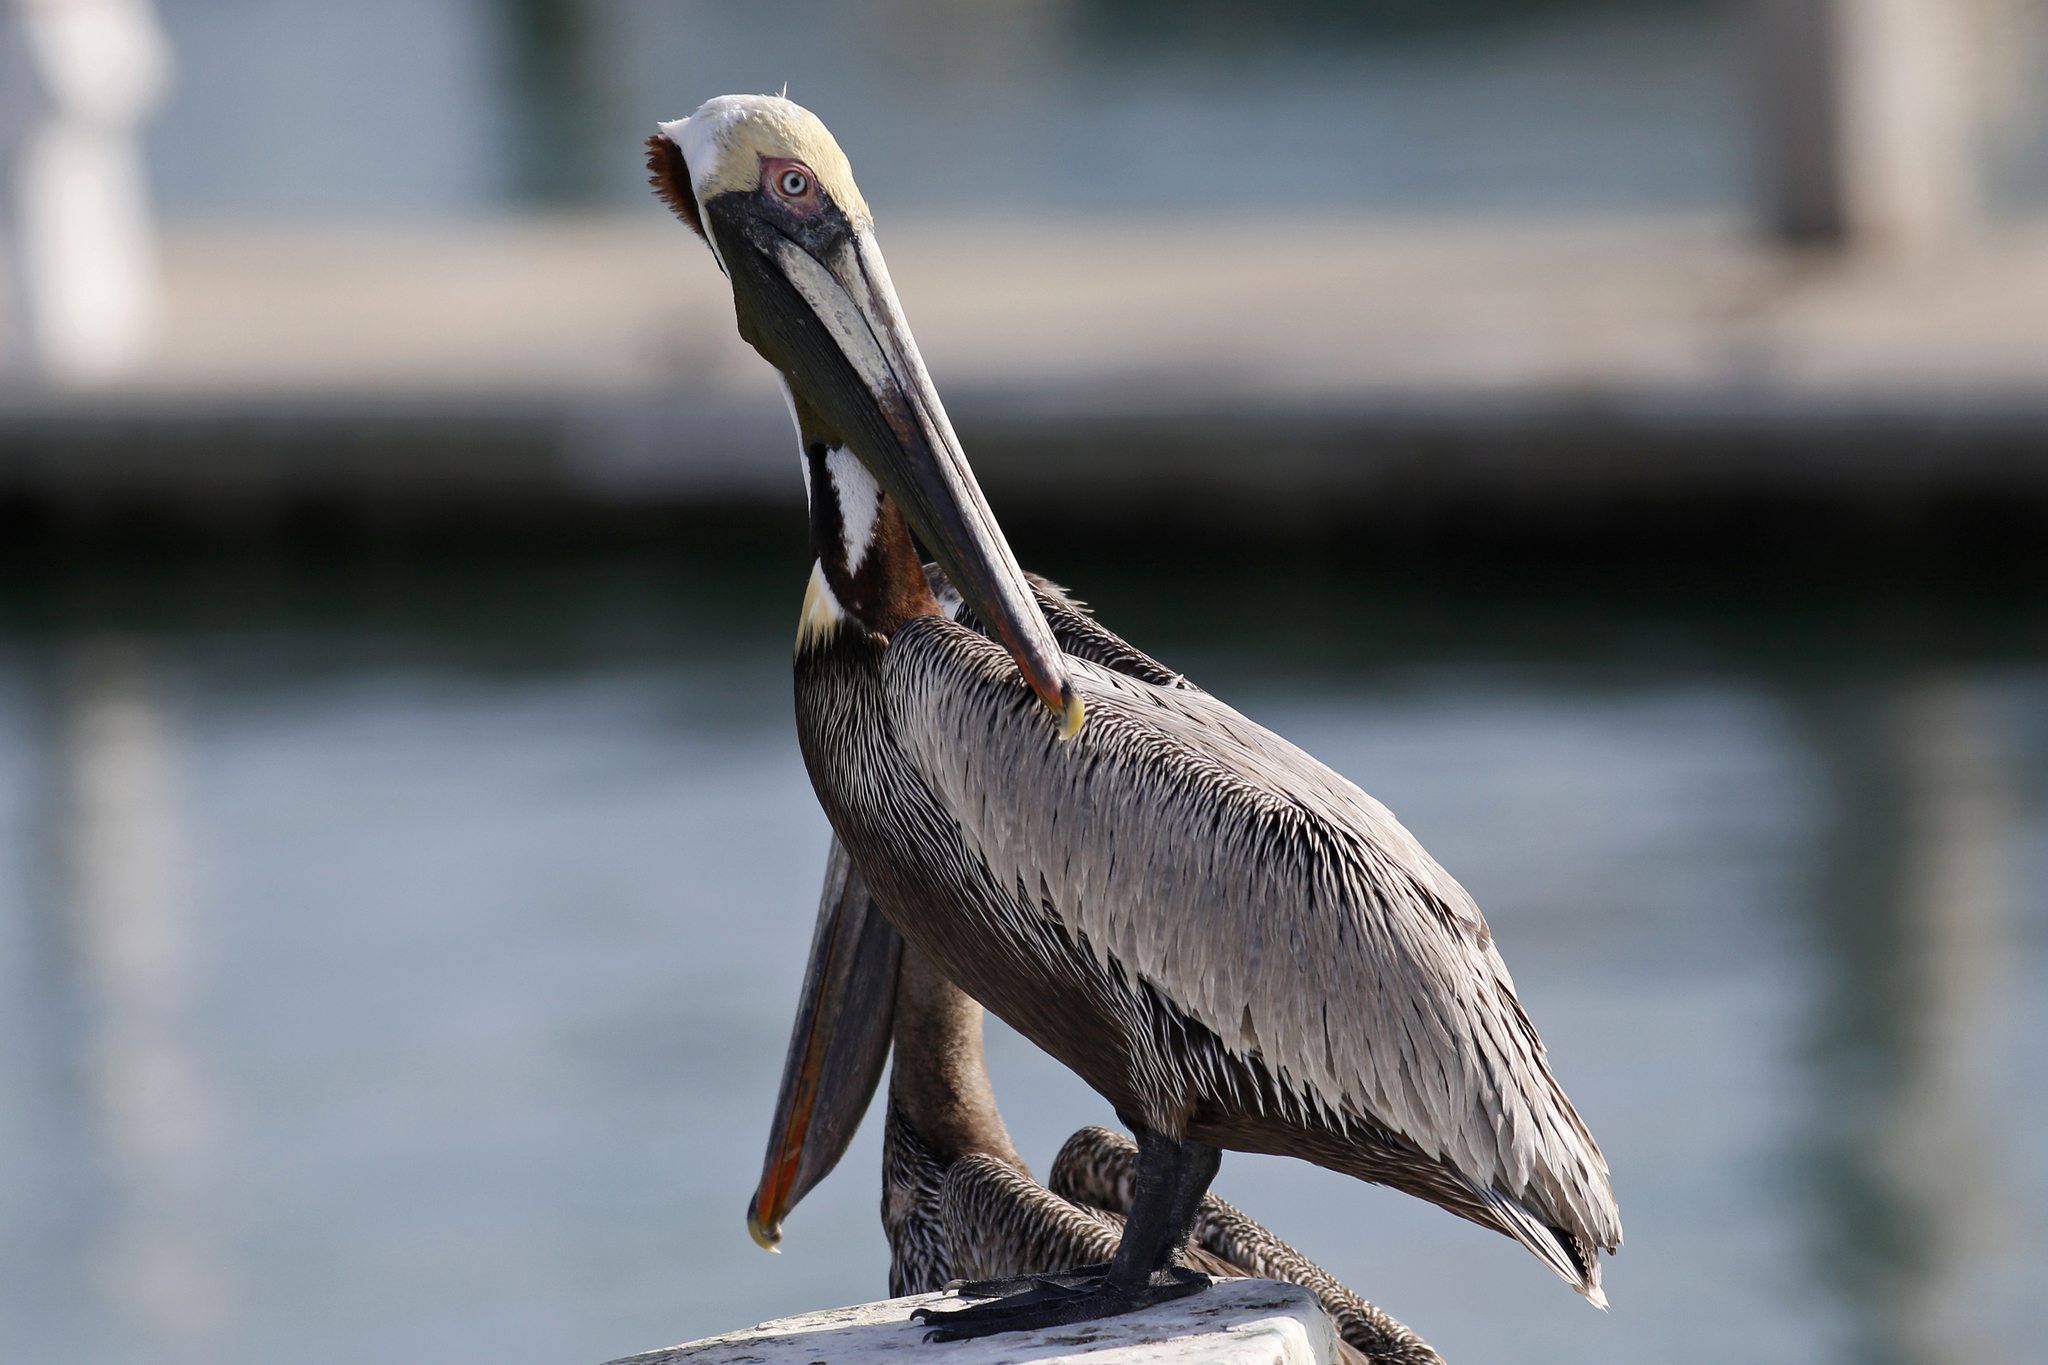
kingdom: Animalia
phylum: Chordata
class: Aves
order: Pelecaniformes
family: Pelecanidae
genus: Pelecanus
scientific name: Pelecanus occidentalis
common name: Brown pelican
